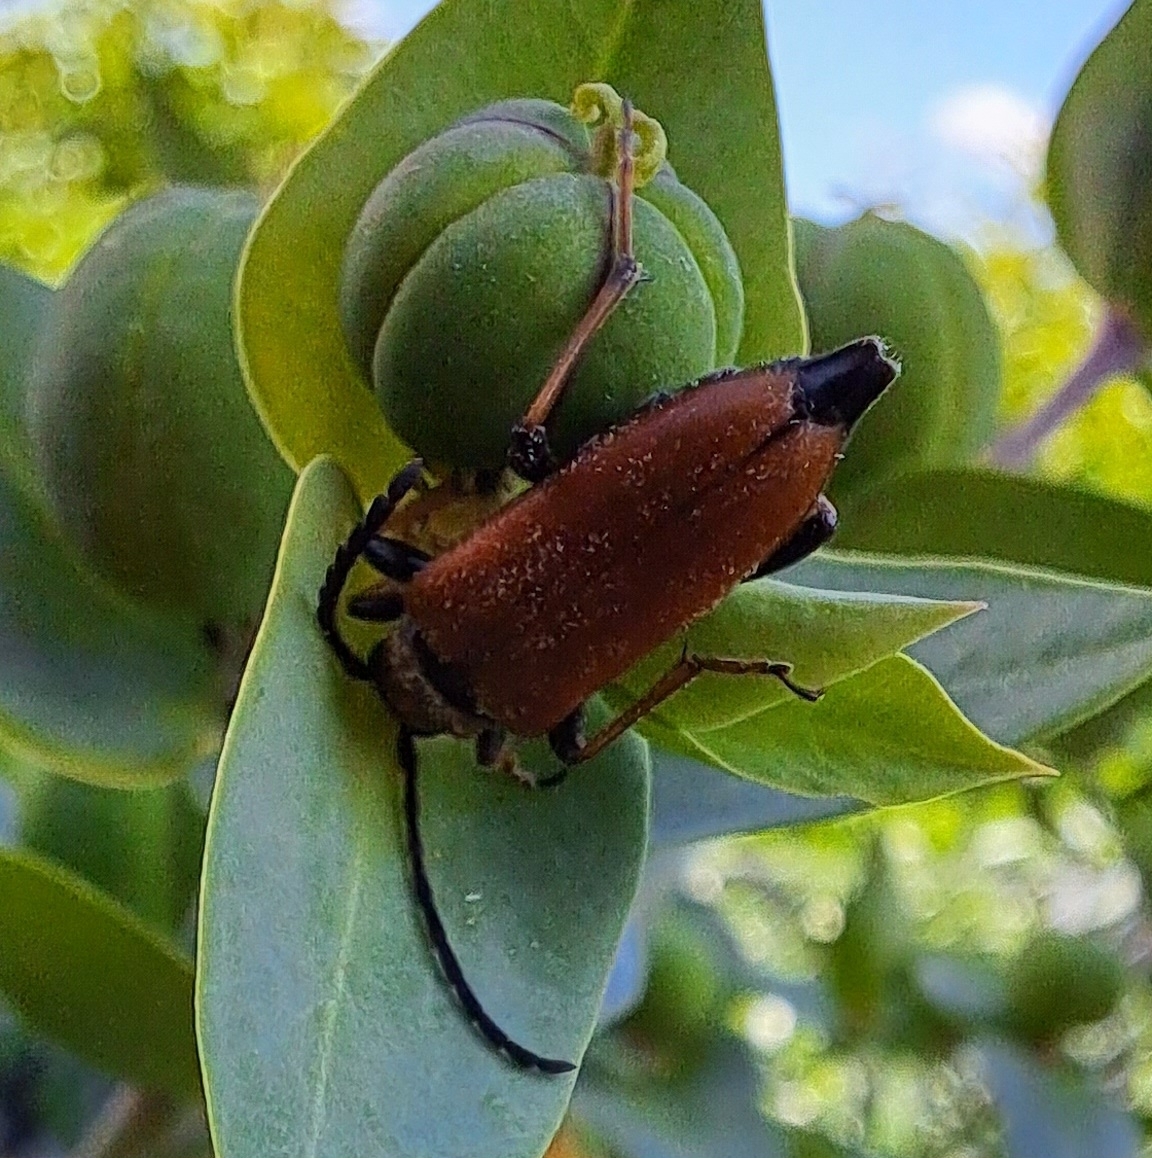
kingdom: Animalia
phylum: Arthropoda
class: Insecta
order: Coleoptera
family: Cerambycidae
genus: Stictoleptura
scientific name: Stictoleptura rubra
